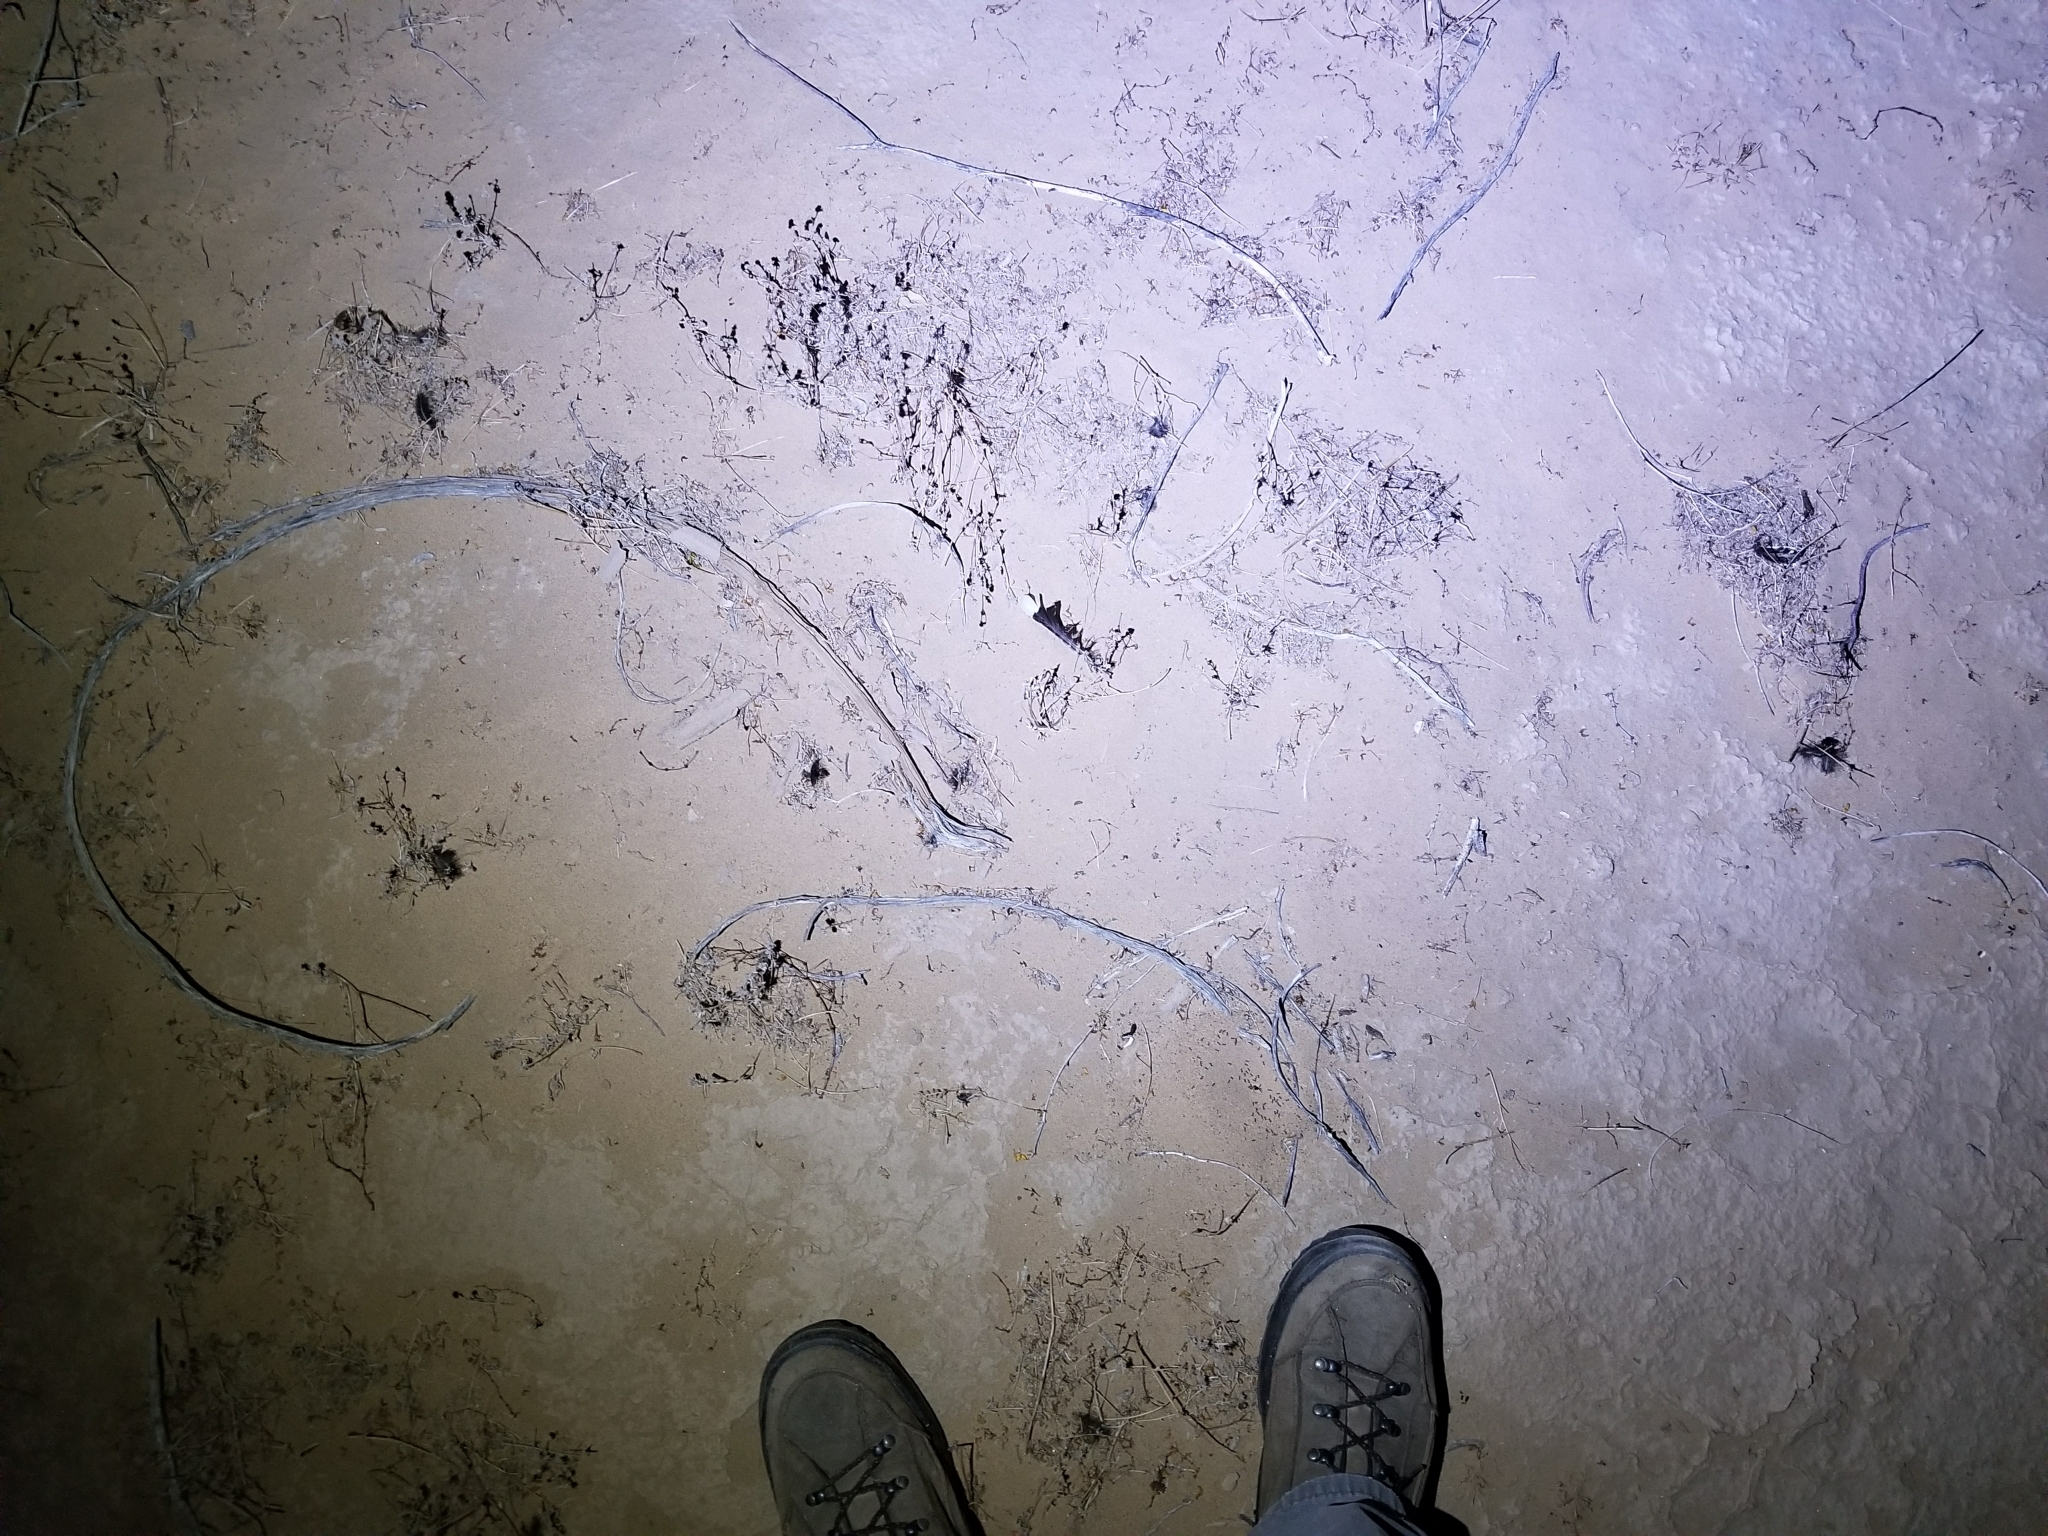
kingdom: Animalia
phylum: Chordata
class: Aves
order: Caprimulgiformes
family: Caprimulgidae
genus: Phalaenoptilus
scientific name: Phalaenoptilus nuttallii
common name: Common poorwill
